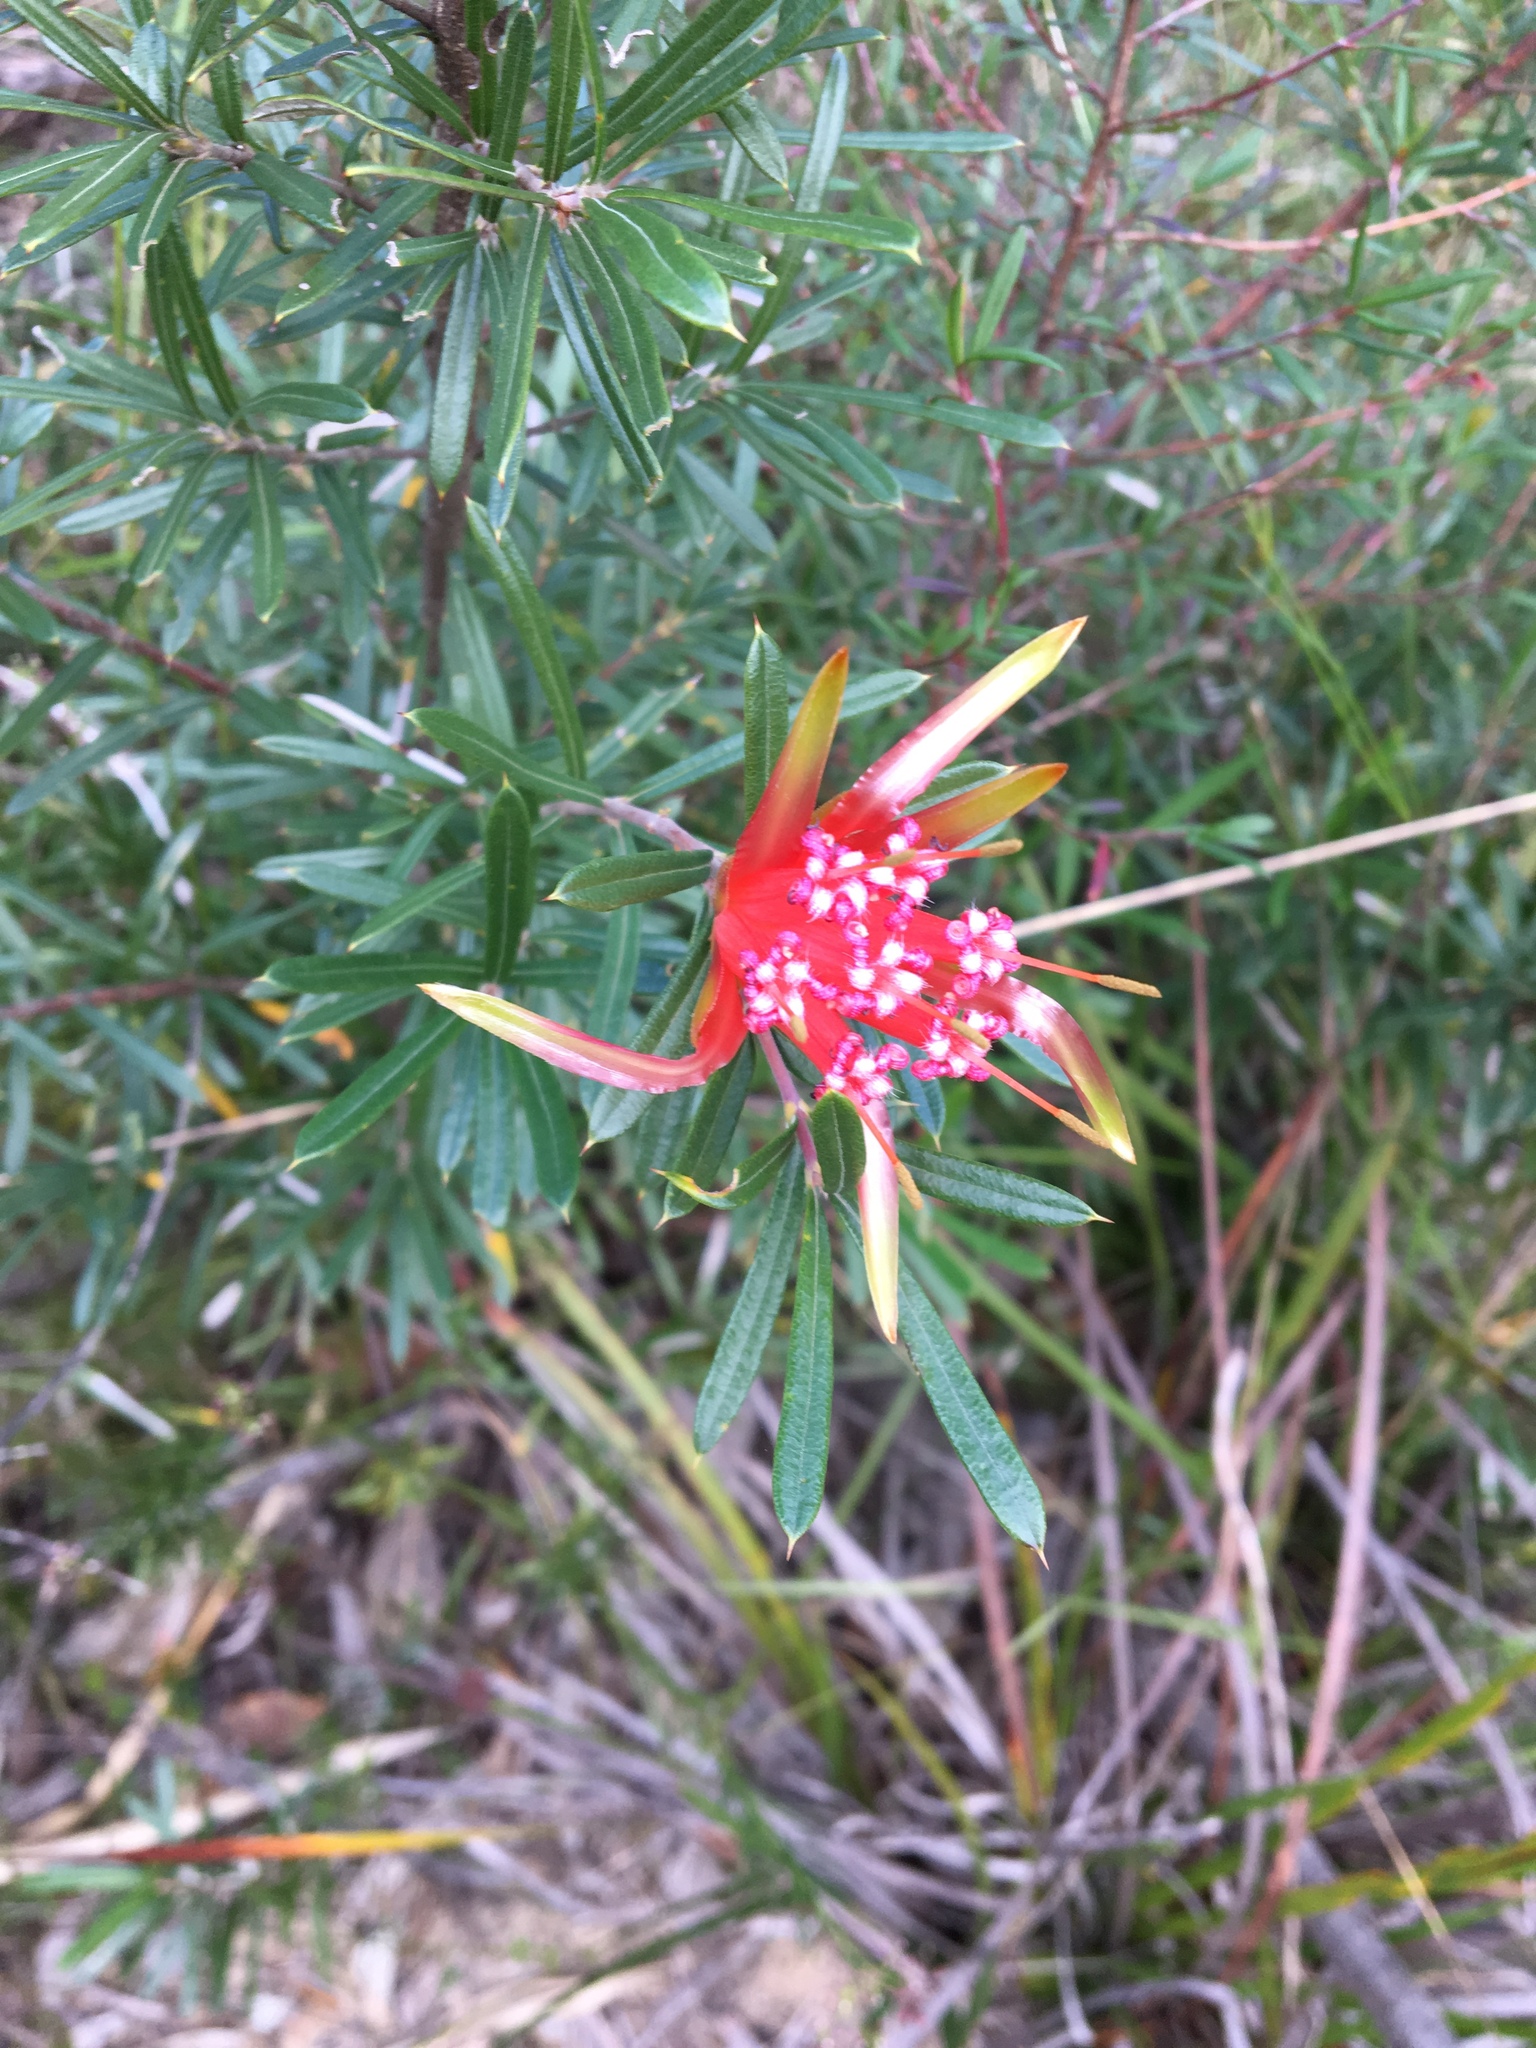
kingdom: Plantae
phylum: Tracheophyta
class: Magnoliopsida
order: Proteales
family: Proteaceae
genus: Lambertia
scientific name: Lambertia formosa
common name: Mountain-devil
